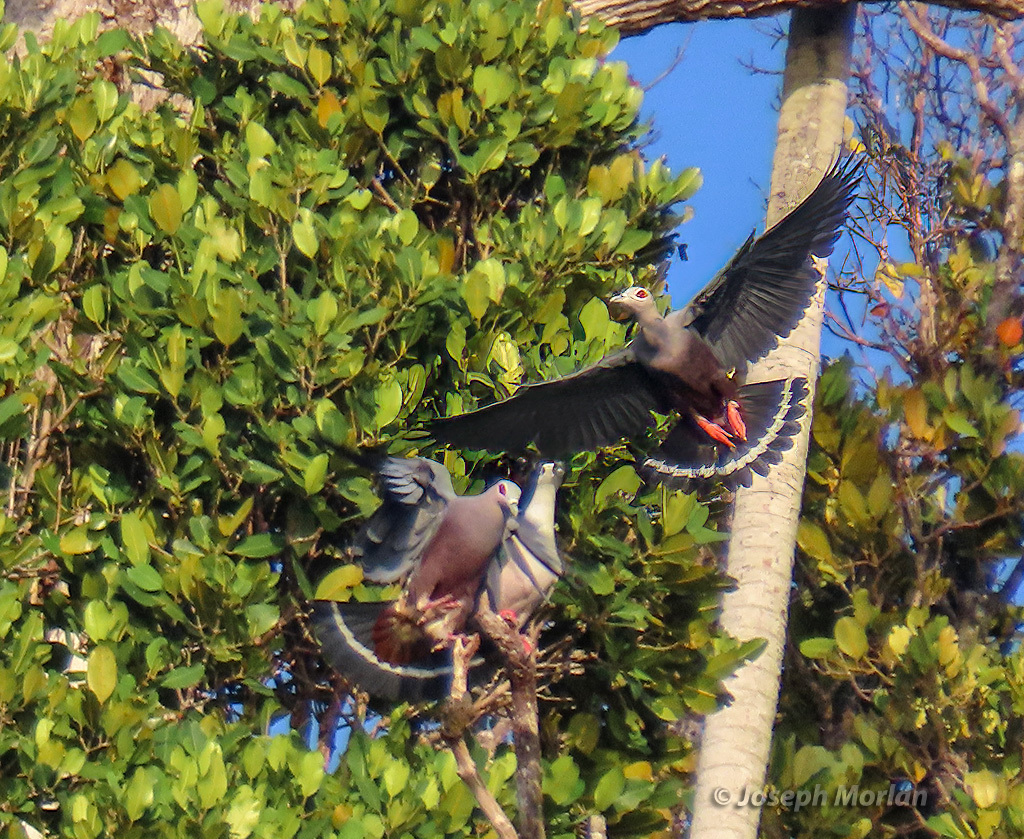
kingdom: Animalia
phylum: Chordata
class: Aves
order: Columbiformes
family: Columbidae
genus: Ducula
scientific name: Ducula pinon
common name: Pinon's imperial pigeon
